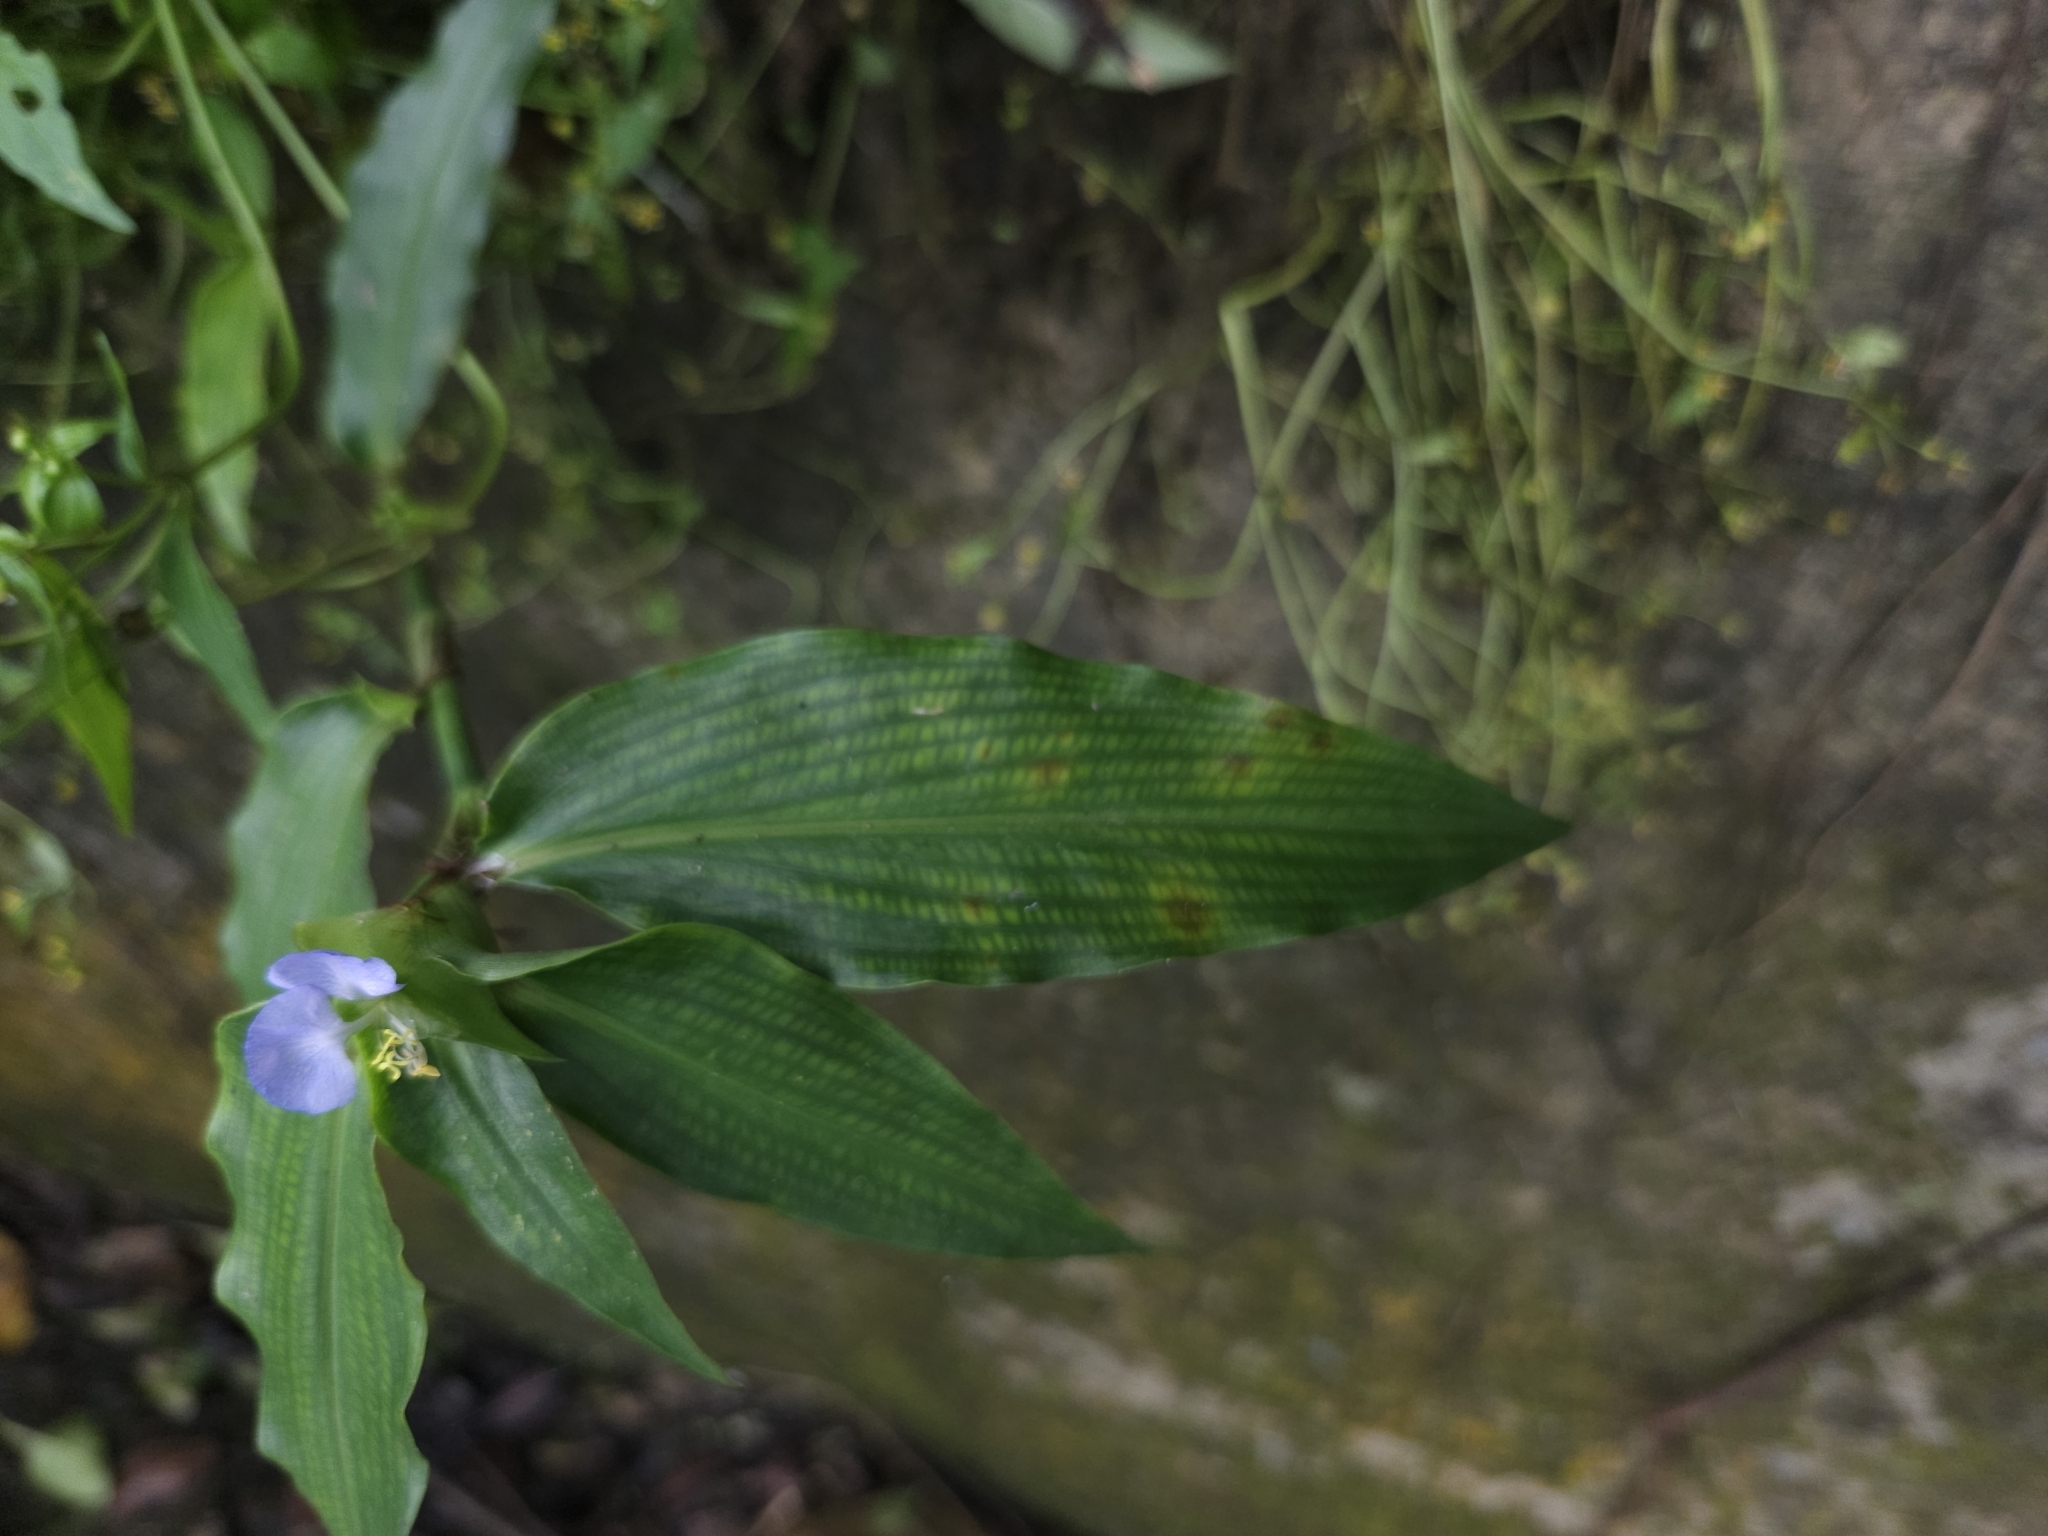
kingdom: Plantae
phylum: Tracheophyta
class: Liliopsida
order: Commelinales
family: Commelinaceae
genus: Commelina
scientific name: Commelina paludosa
